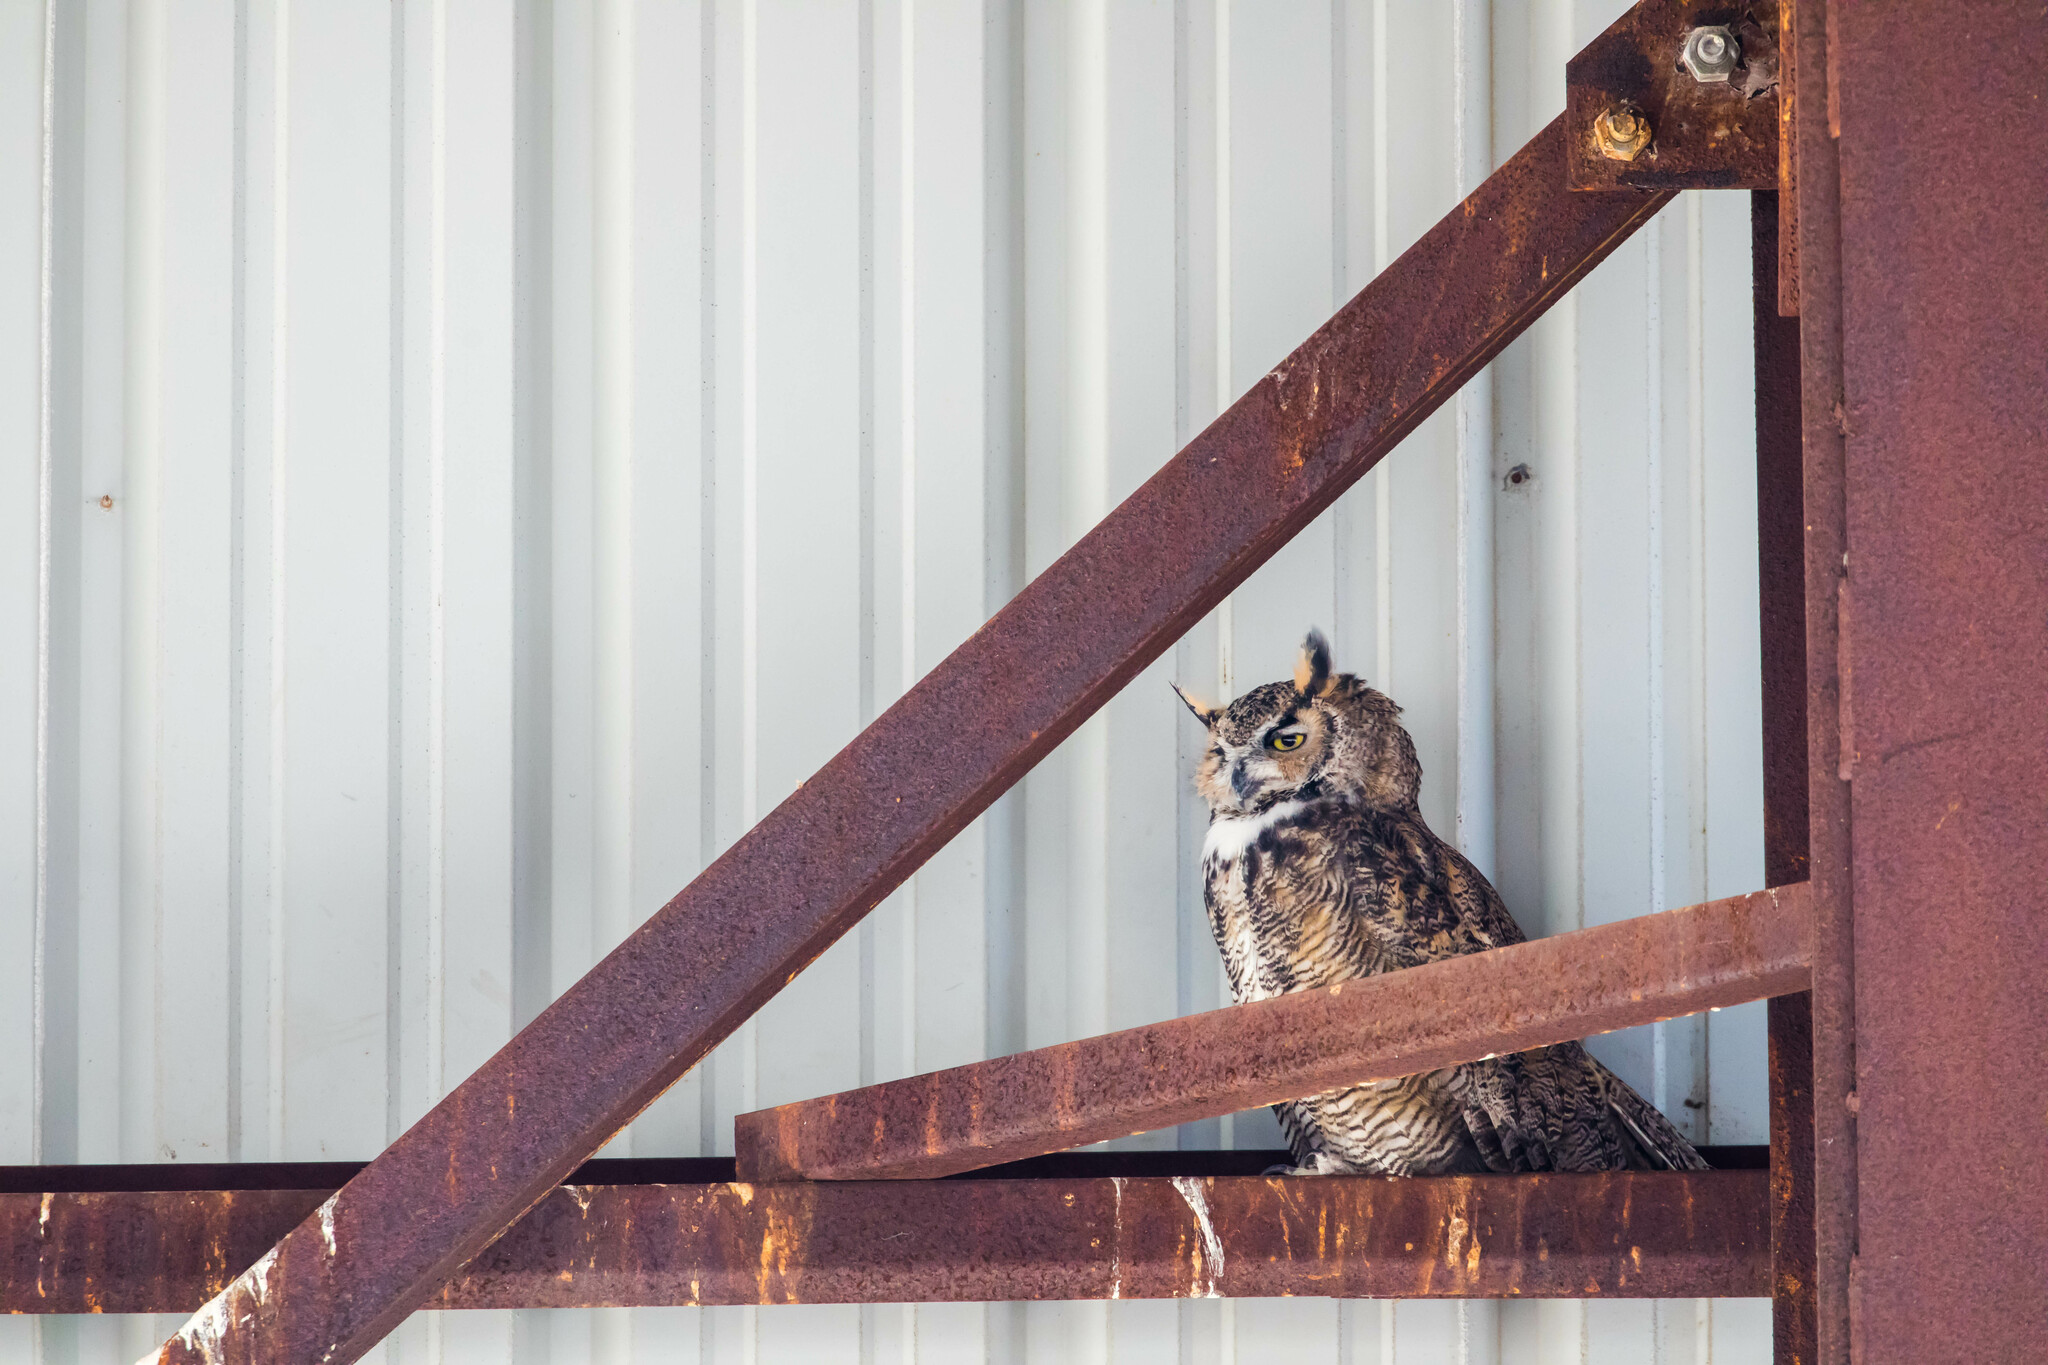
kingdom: Animalia
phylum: Chordata
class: Aves
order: Strigiformes
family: Strigidae
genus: Bubo
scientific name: Bubo virginianus
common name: Great horned owl
